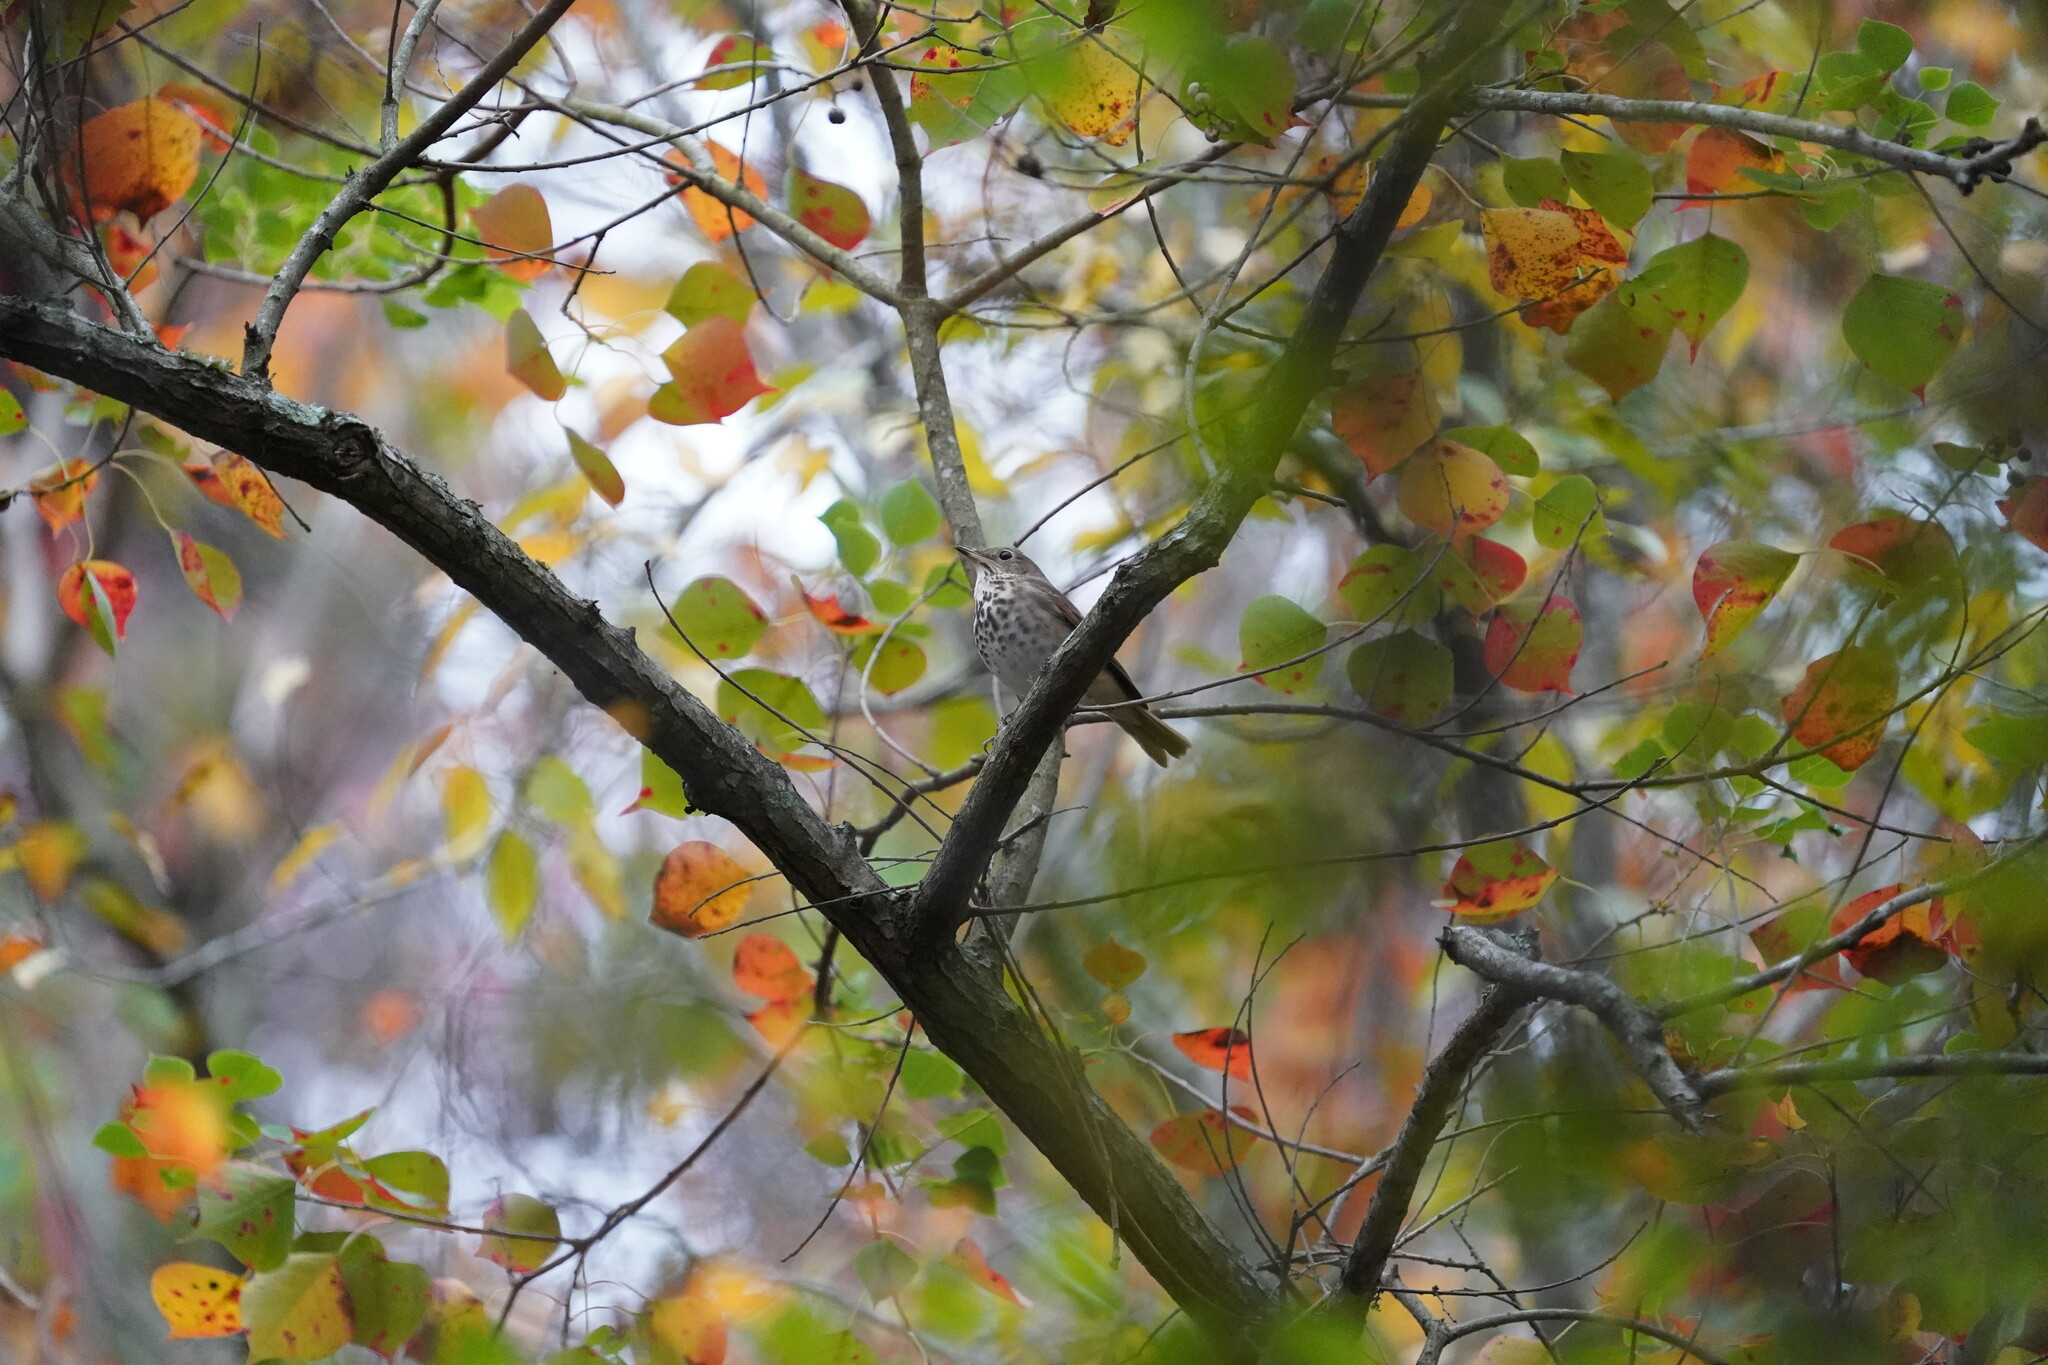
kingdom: Animalia
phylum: Chordata
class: Aves
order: Passeriformes
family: Turdidae
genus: Catharus
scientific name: Catharus guttatus
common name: Hermit thrush
